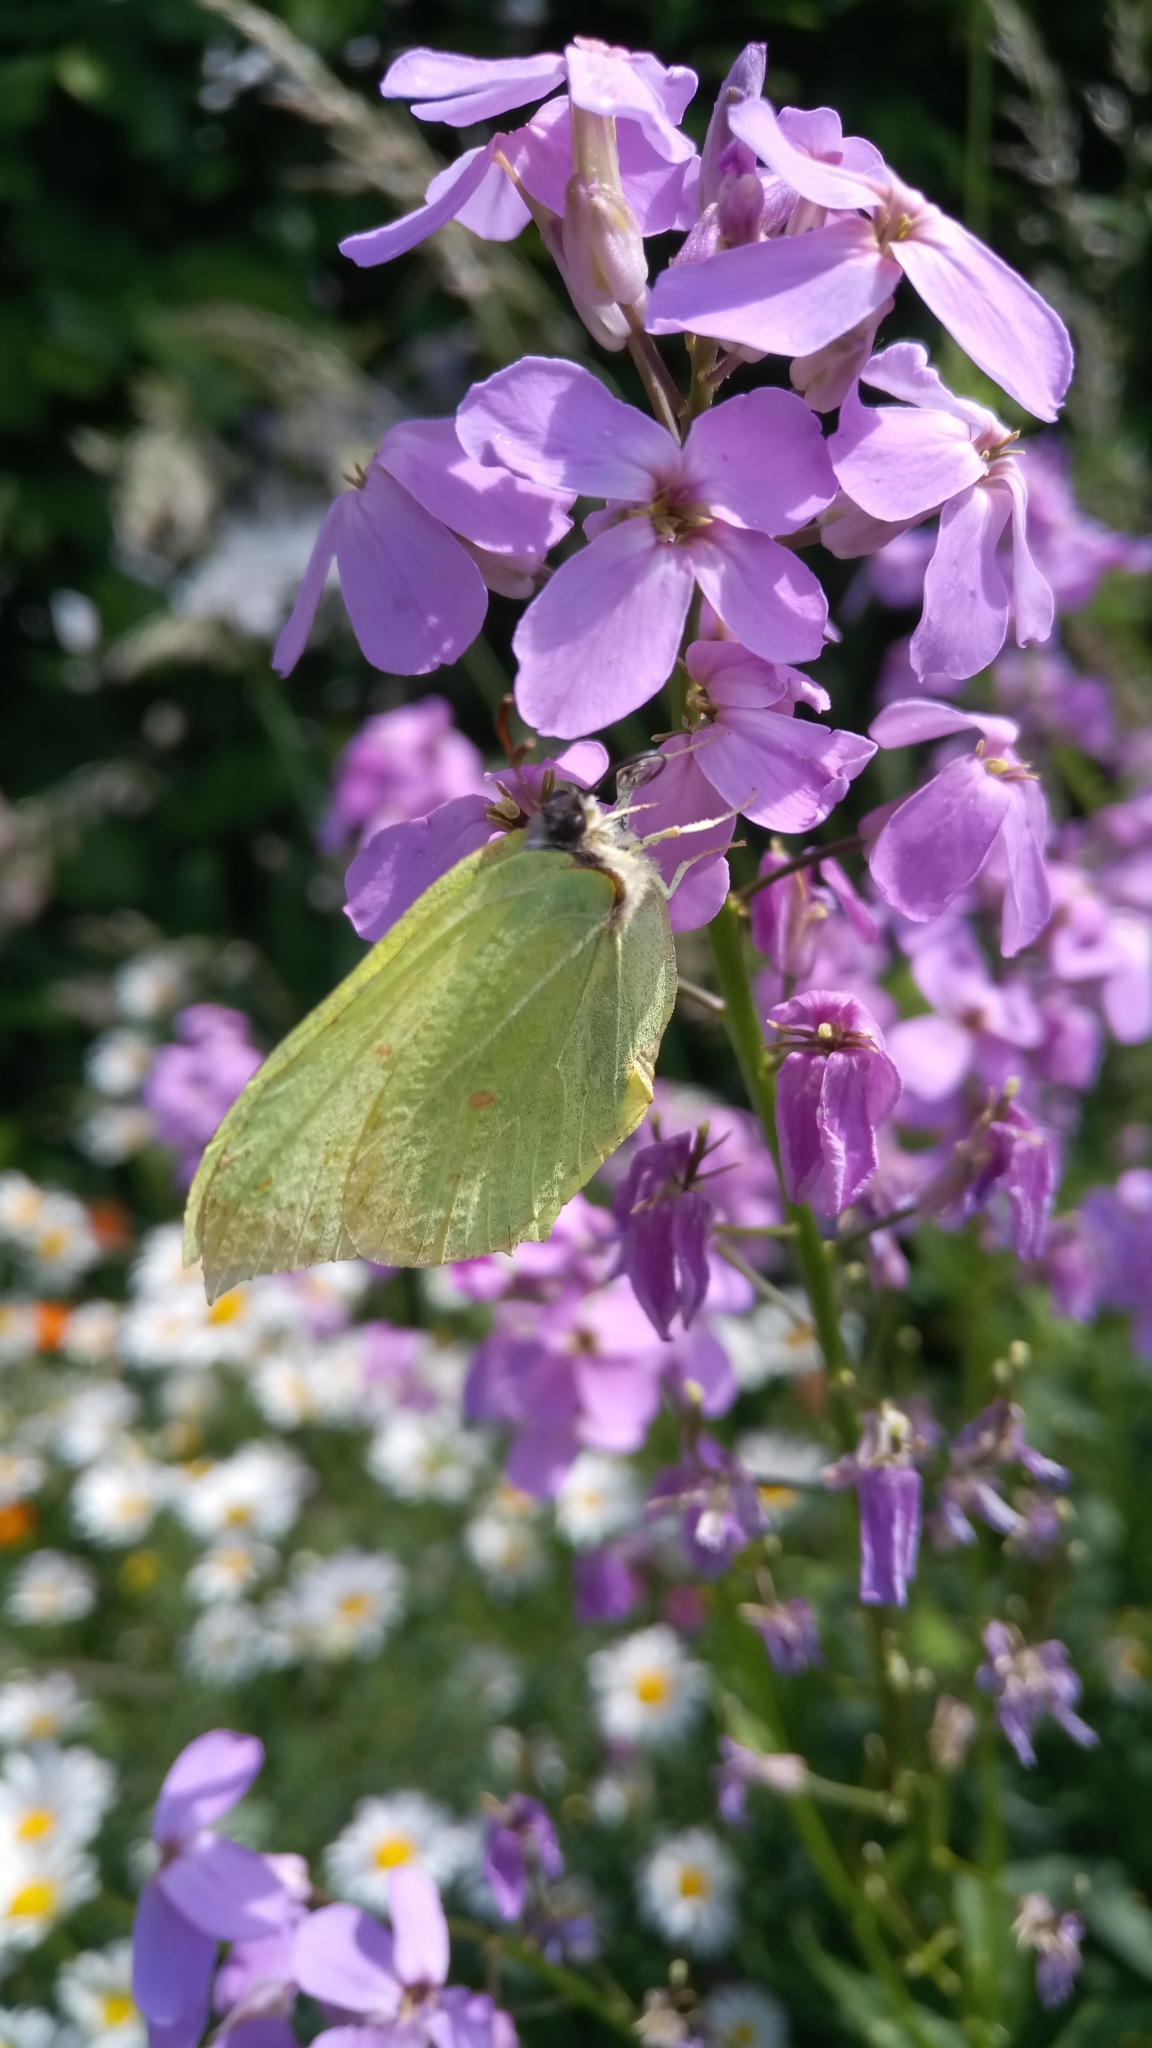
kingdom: Animalia
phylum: Arthropoda
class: Insecta
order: Lepidoptera
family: Pieridae
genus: Gonepteryx
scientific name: Gonepteryx rhamni
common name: Brimstone
